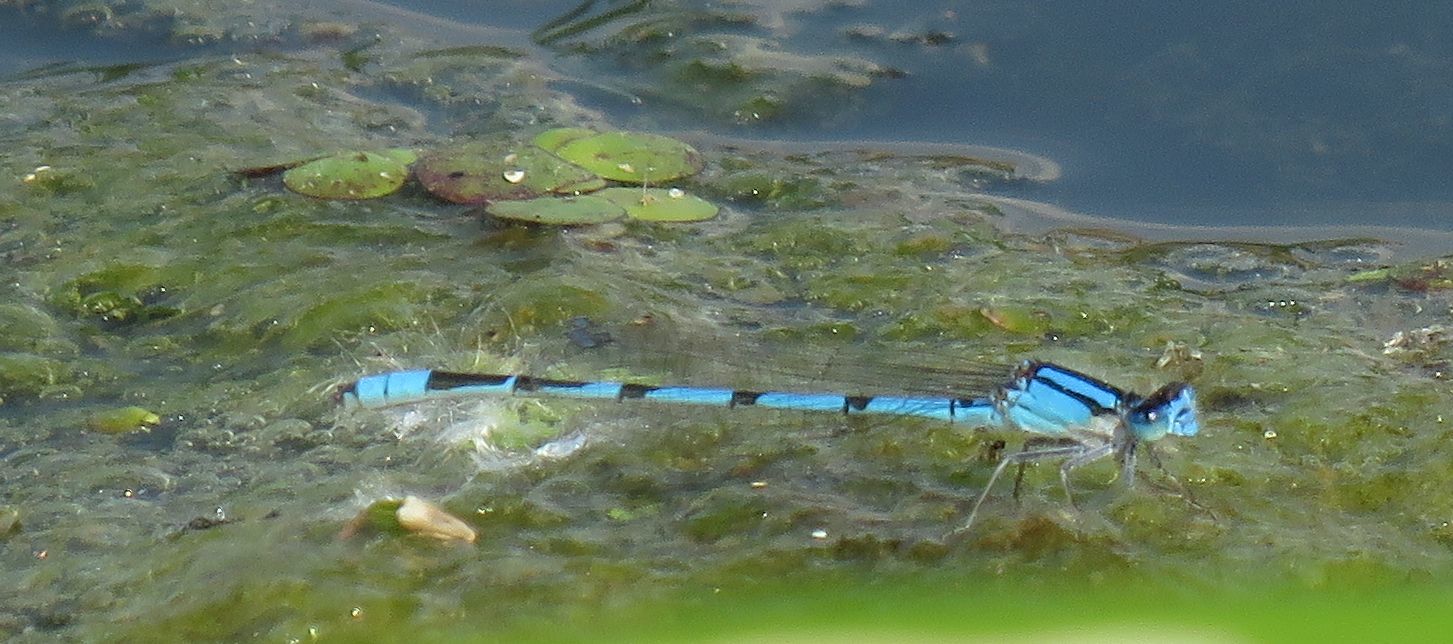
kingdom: Animalia
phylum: Arthropoda
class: Insecta
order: Odonata
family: Coenagrionidae
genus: Enallagma
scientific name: Enallagma civile
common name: Damselfly
